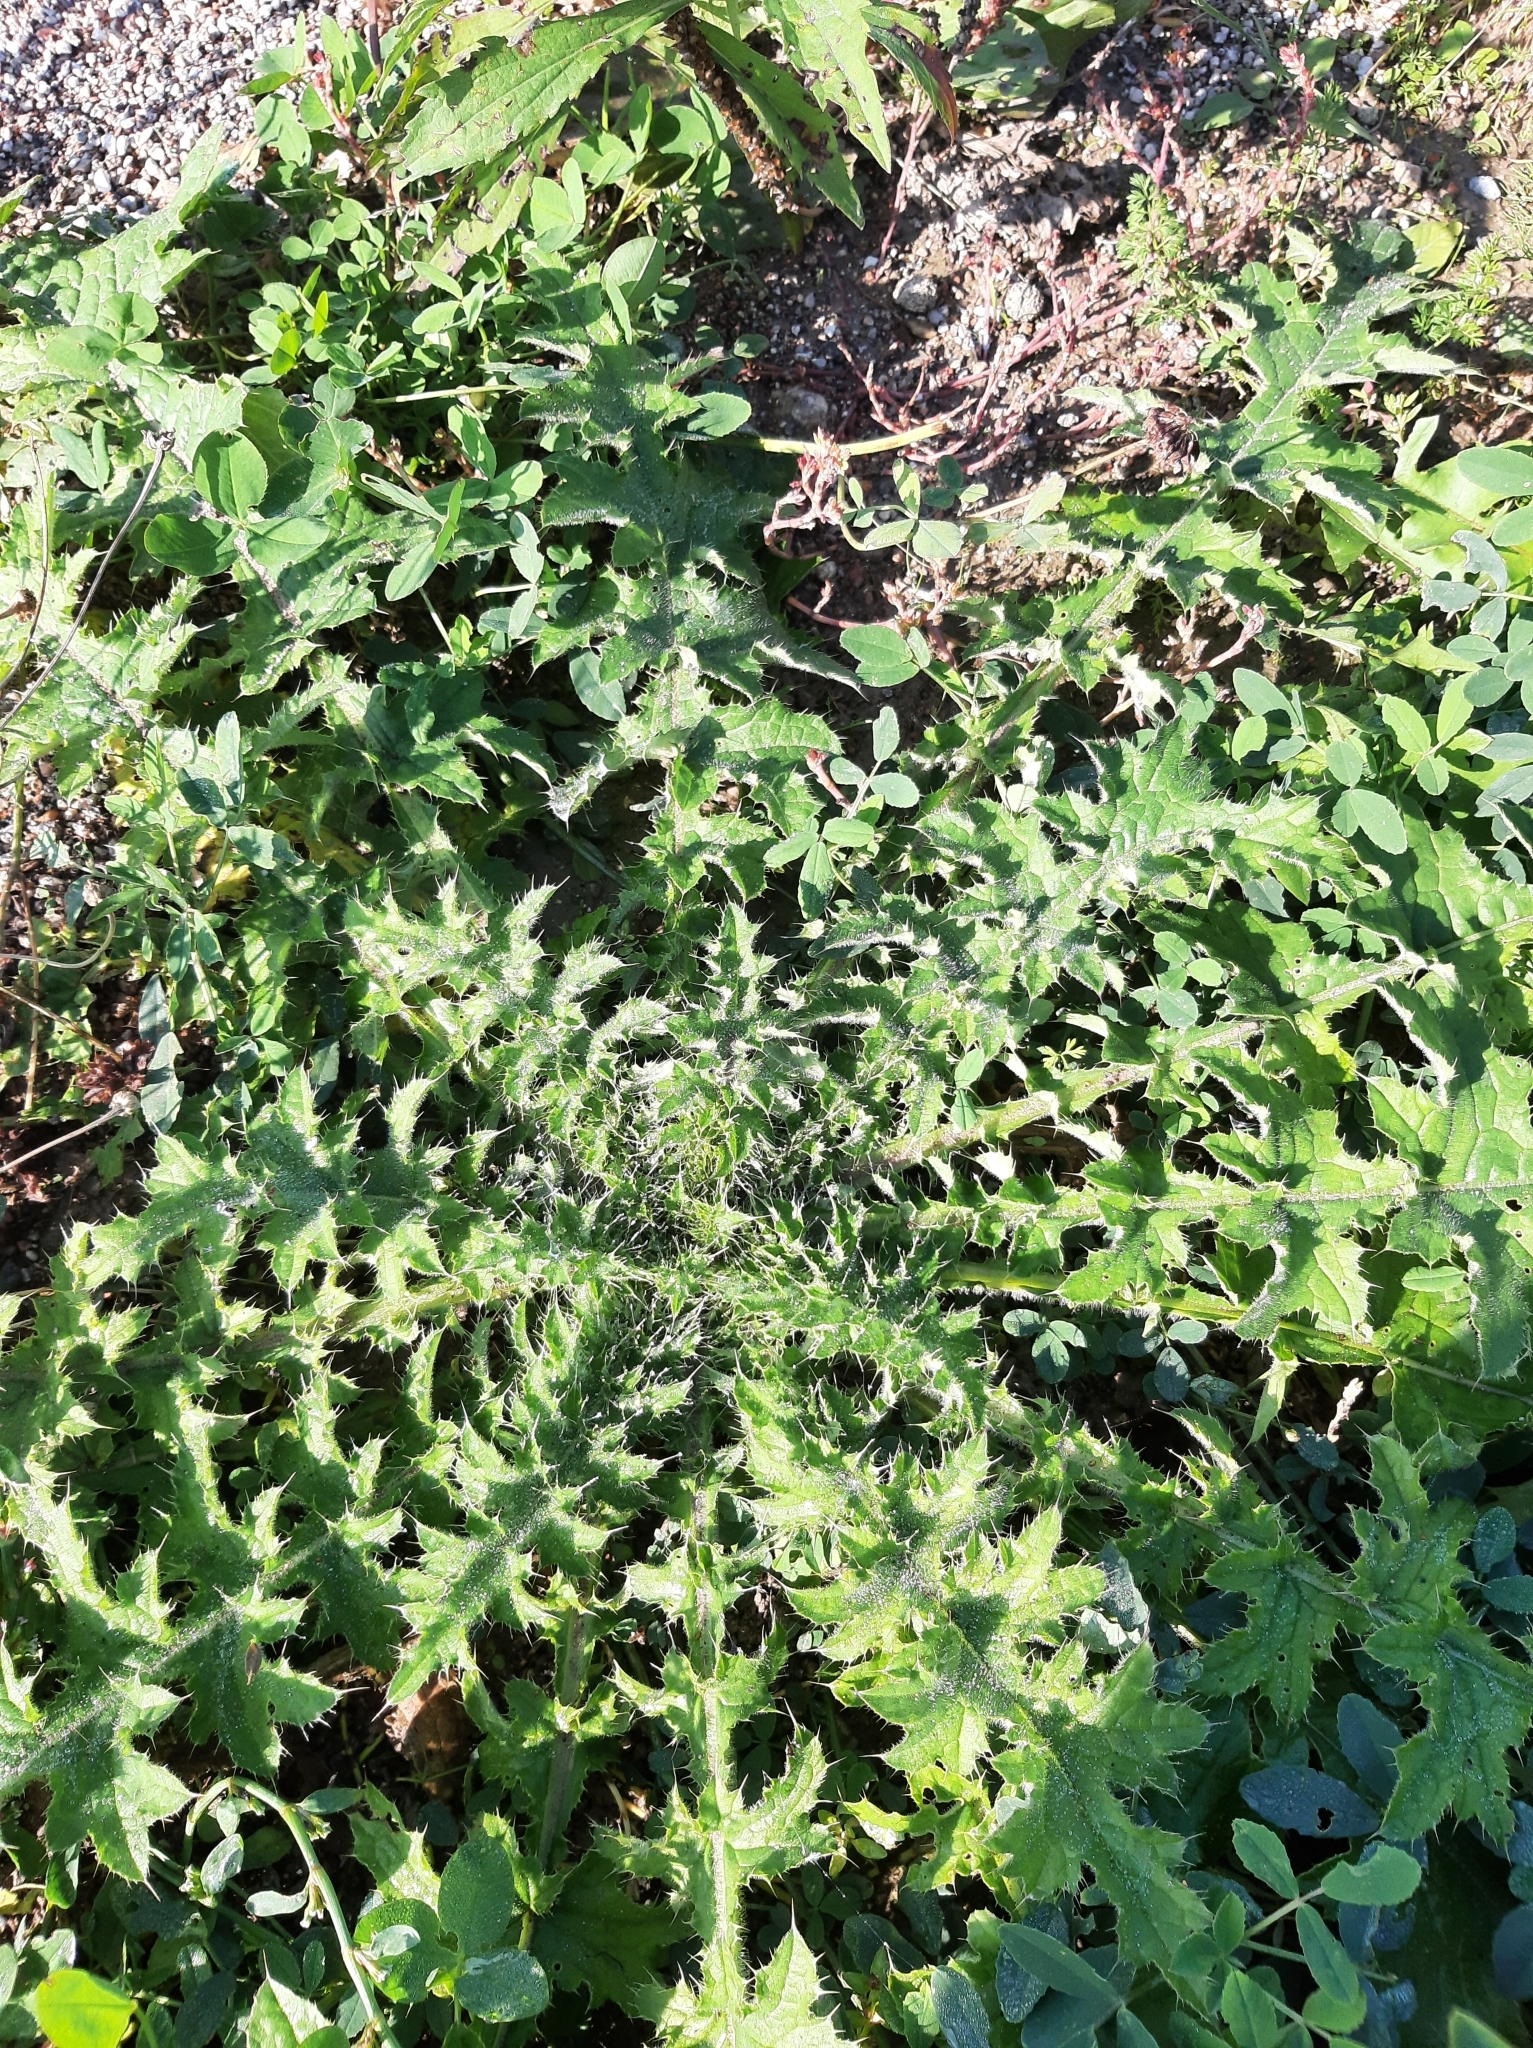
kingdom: Plantae
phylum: Tracheophyta
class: Magnoliopsida
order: Asterales
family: Asteraceae
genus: Carduus
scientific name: Carduus crispus
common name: Welted thistle
